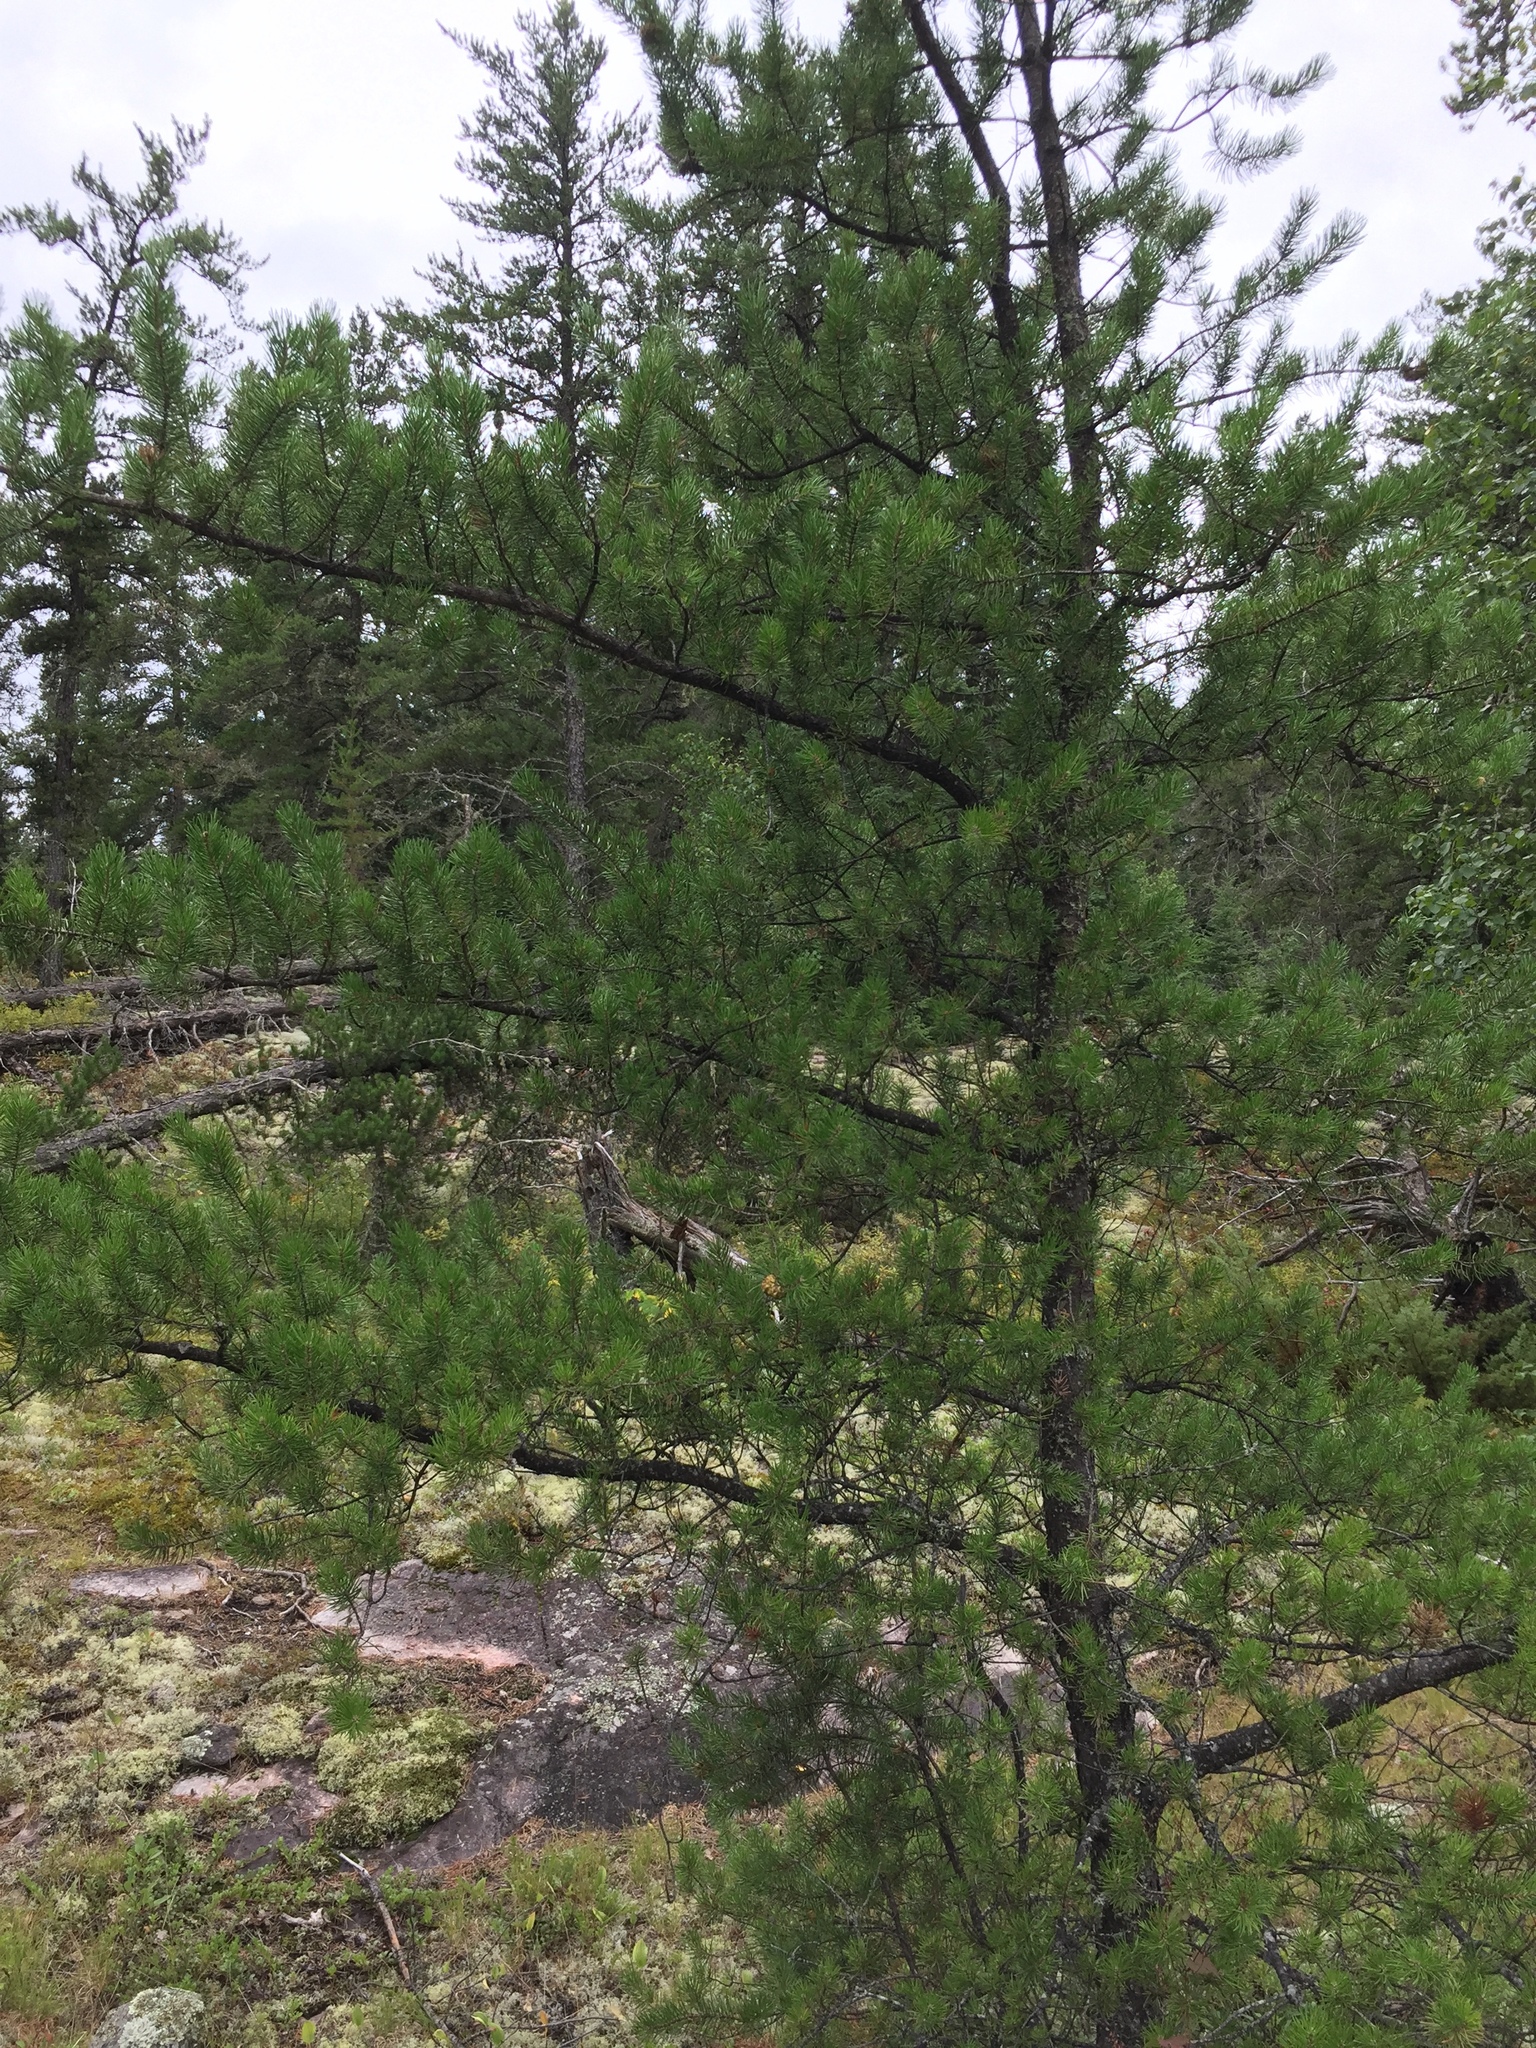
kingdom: Plantae
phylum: Tracheophyta
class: Pinopsida
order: Pinales
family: Pinaceae
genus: Pinus
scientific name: Pinus banksiana
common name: Jack pine
